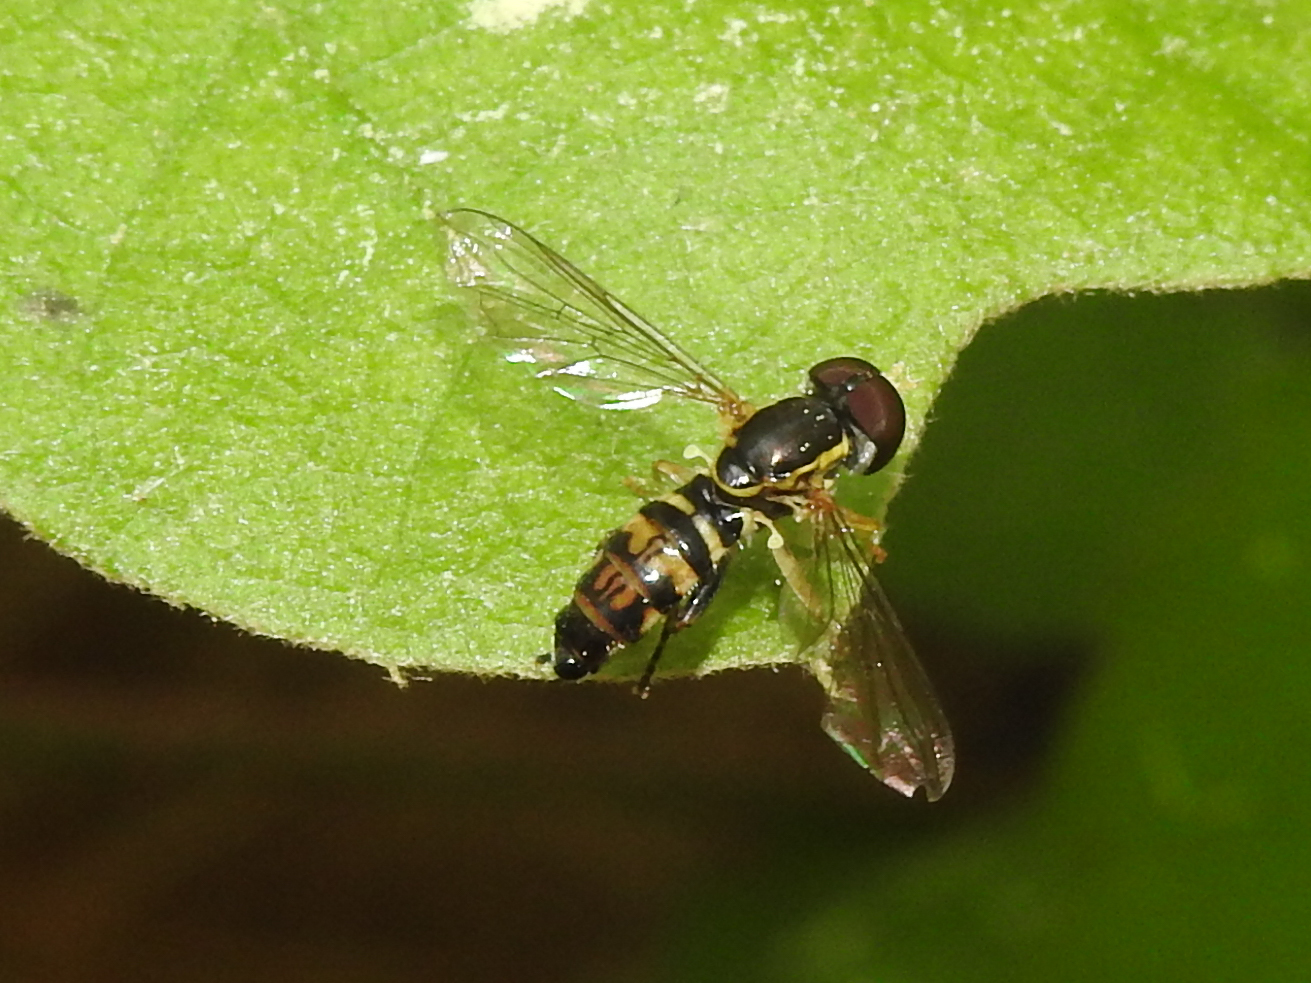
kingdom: Animalia
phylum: Arthropoda
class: Insecta
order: Diptera
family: Syrphidae
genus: Toxomerus
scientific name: Toxomerus geminatus
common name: Eastern calligrapher
